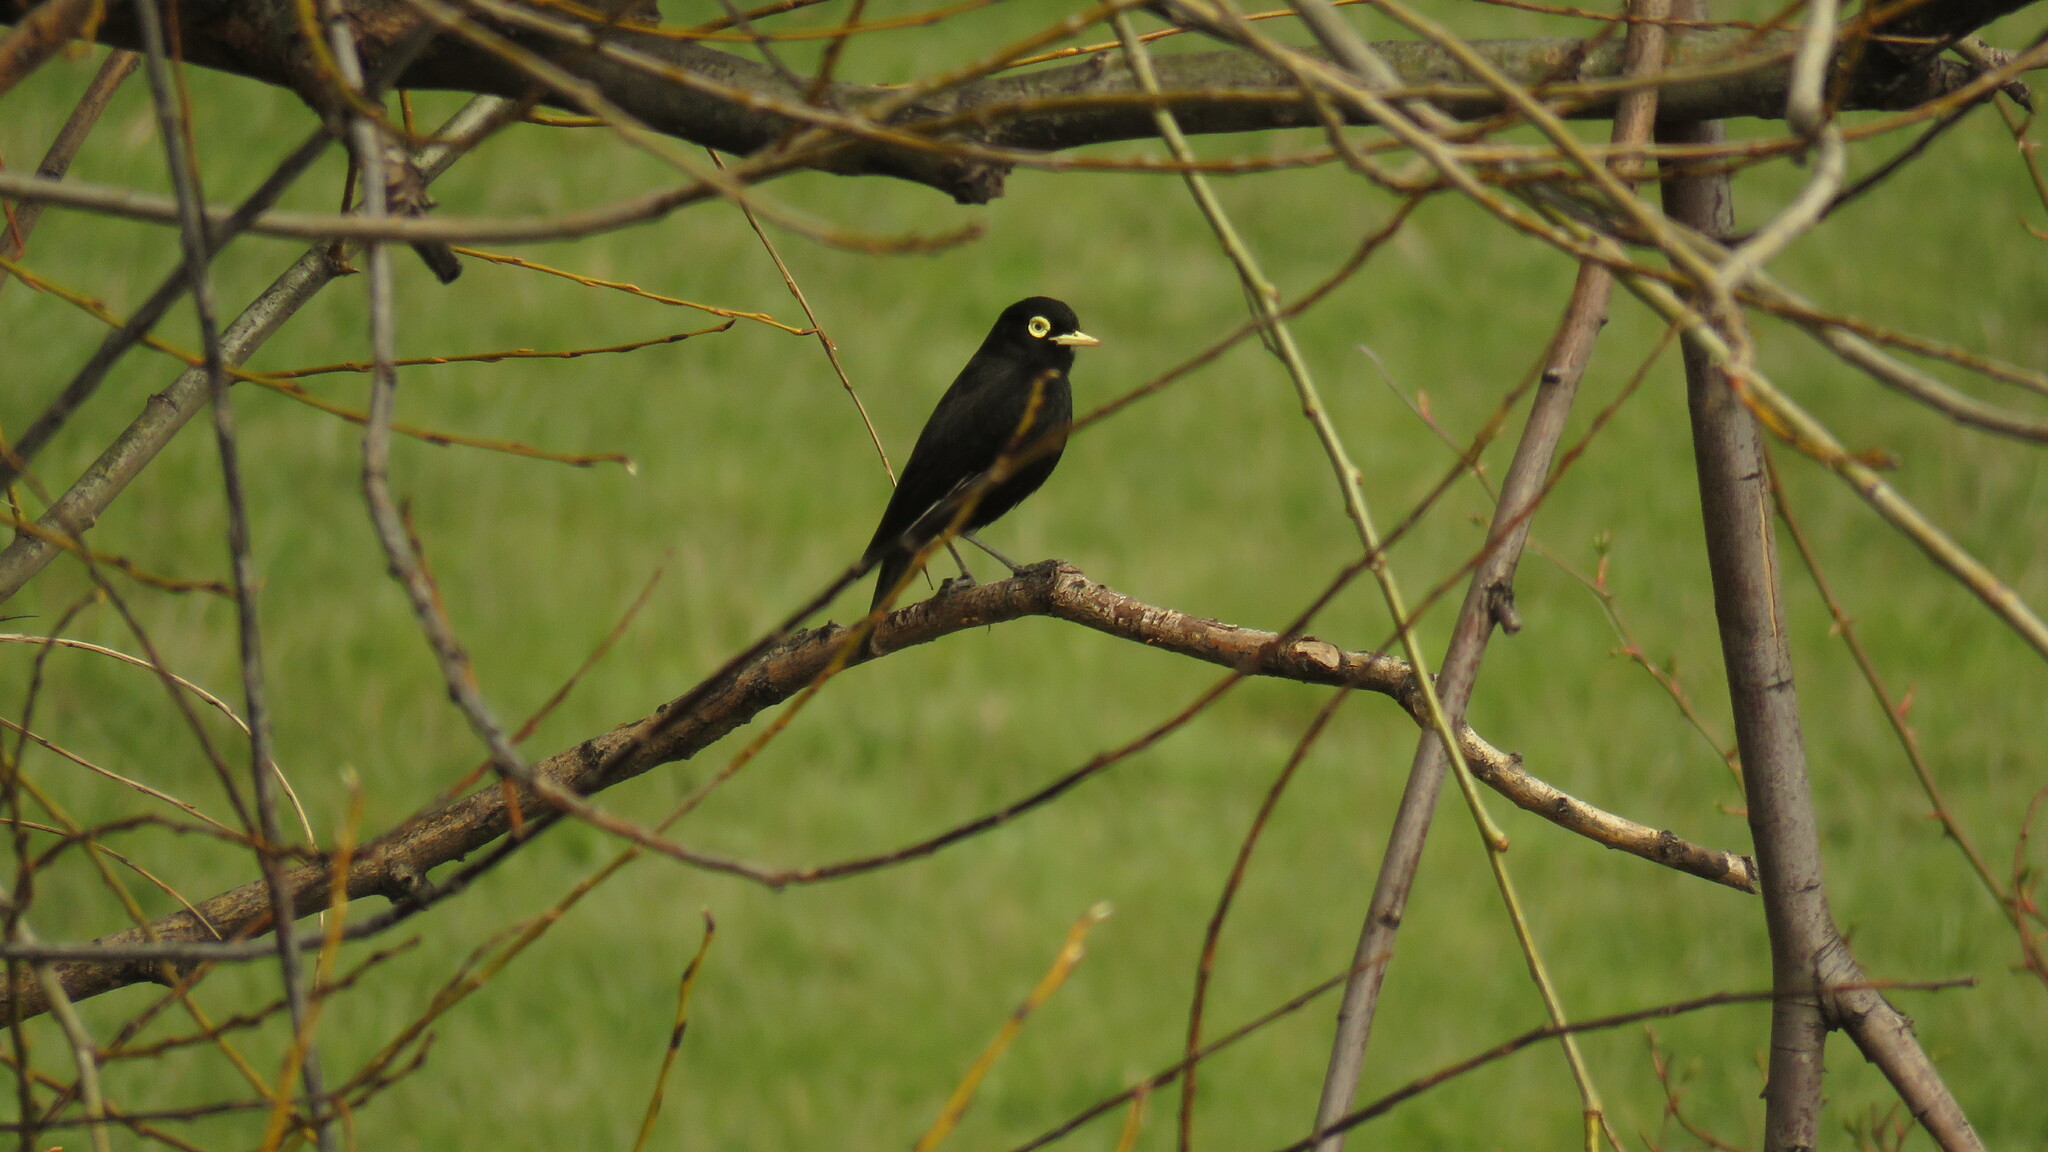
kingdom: Animalia
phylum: Chordata
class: Aves
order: Passeriformes
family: Tyrannidae
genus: Hymenops
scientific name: Hymenops perspicillatus
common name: Spectacled tyrant
